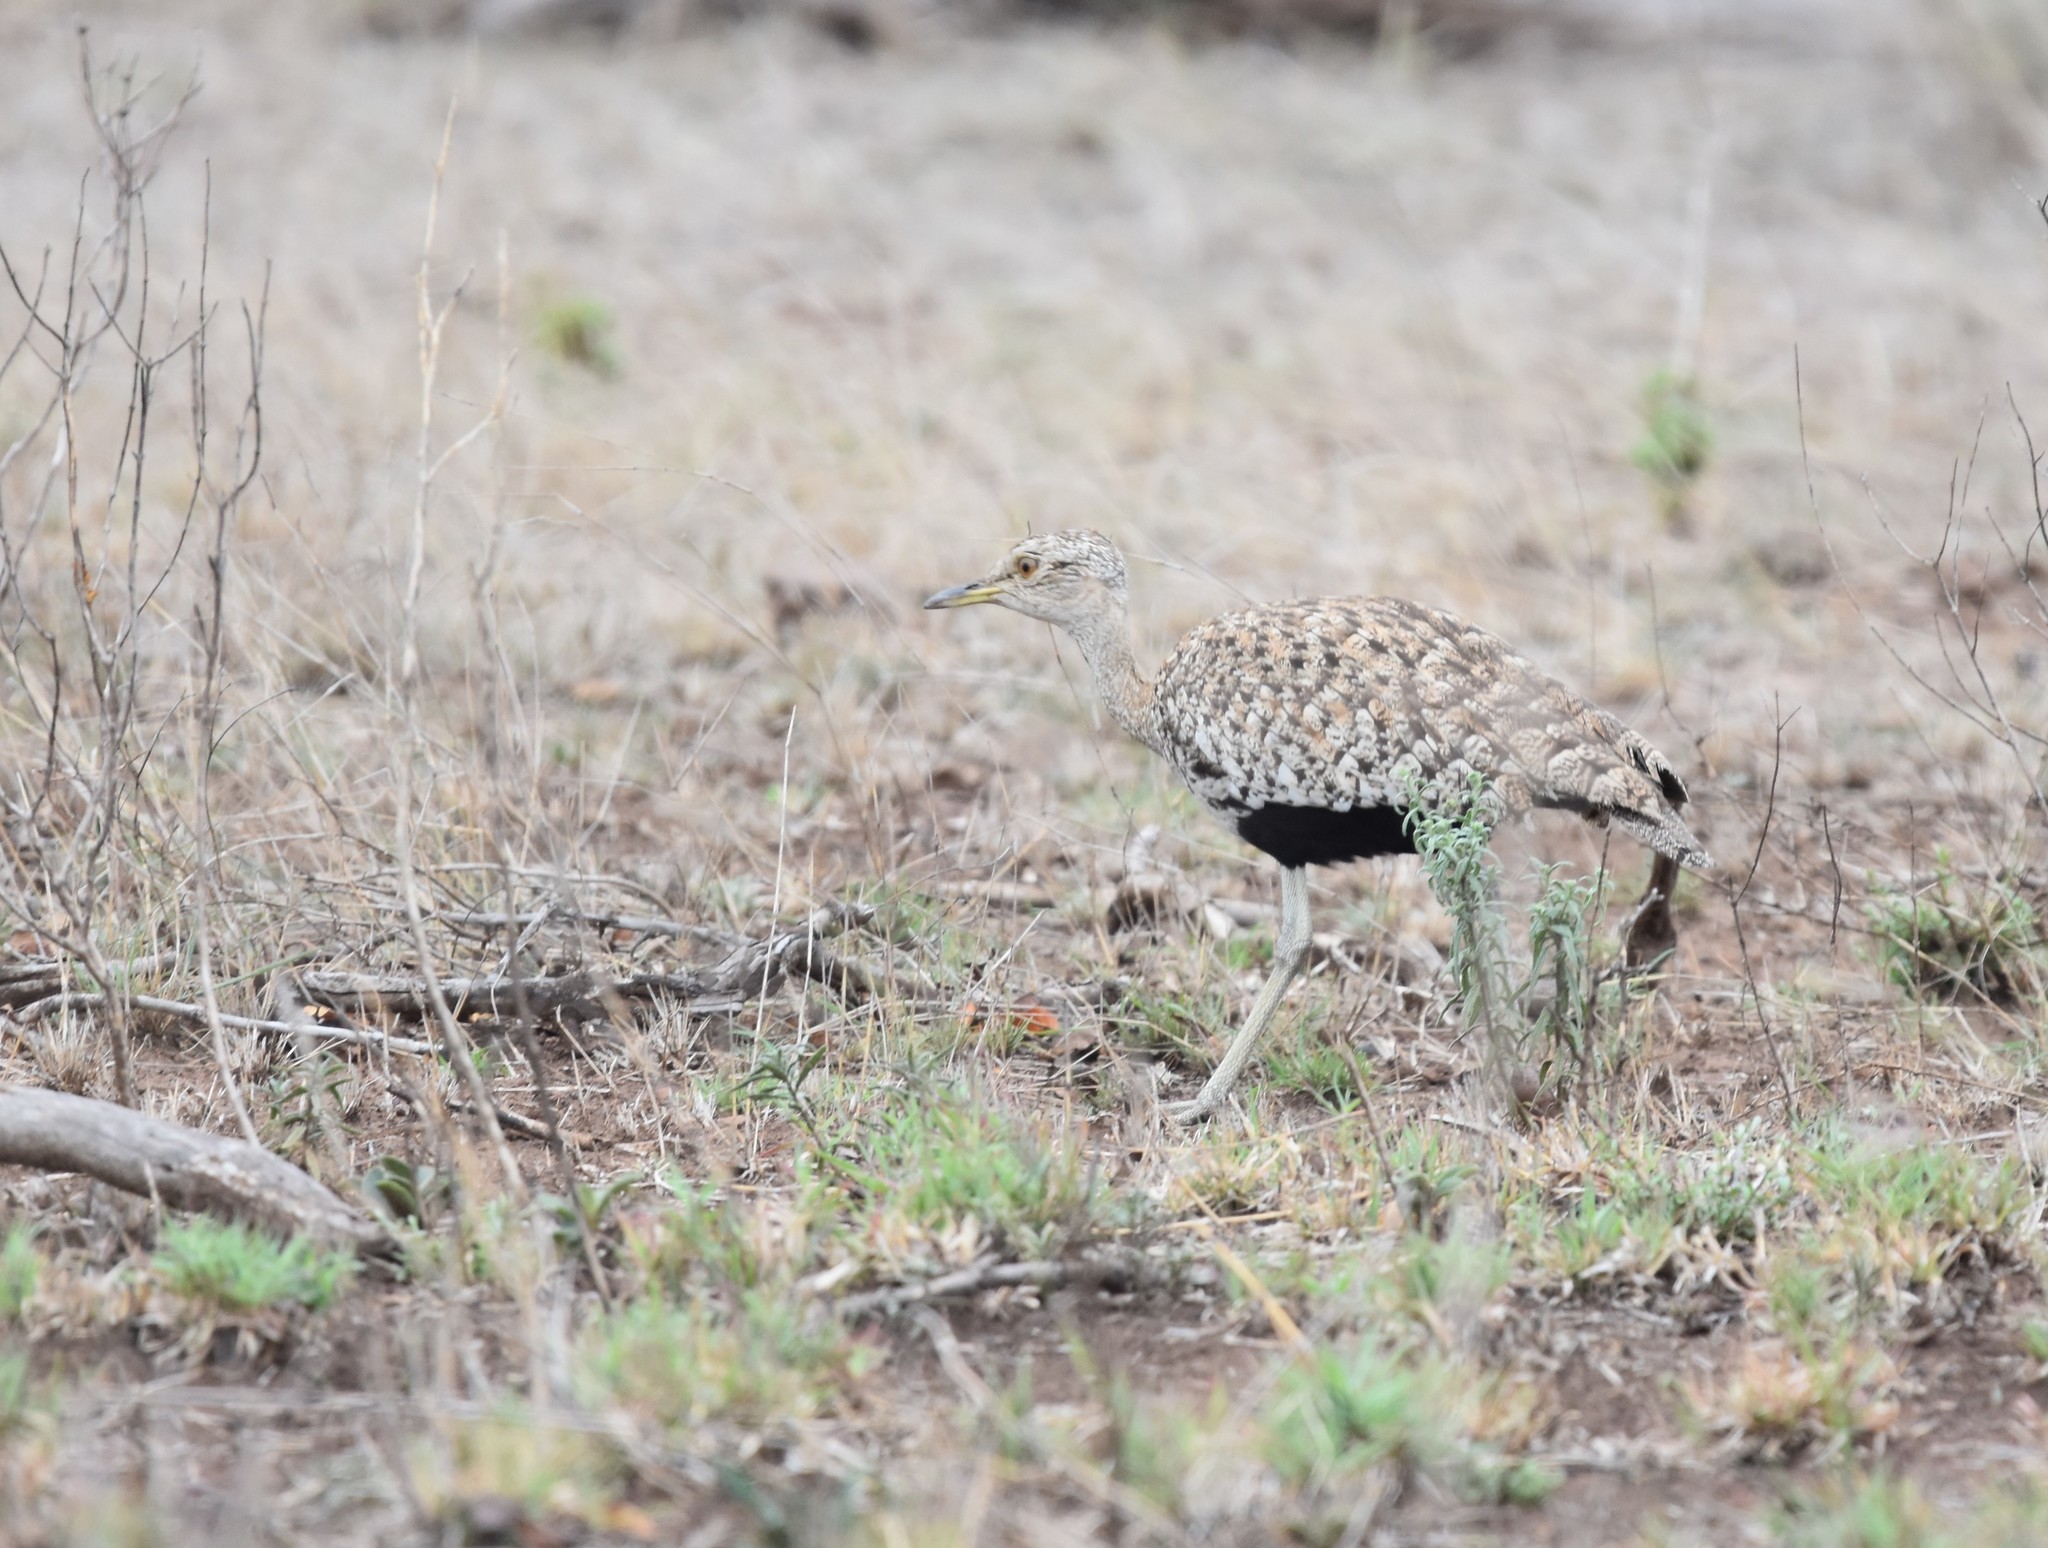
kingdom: Animalia
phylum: Chordata
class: Aves
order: Otidiformes
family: Otididae
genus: Lophotis
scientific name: Lophotis ruficrista
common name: Red-crested korhaan
